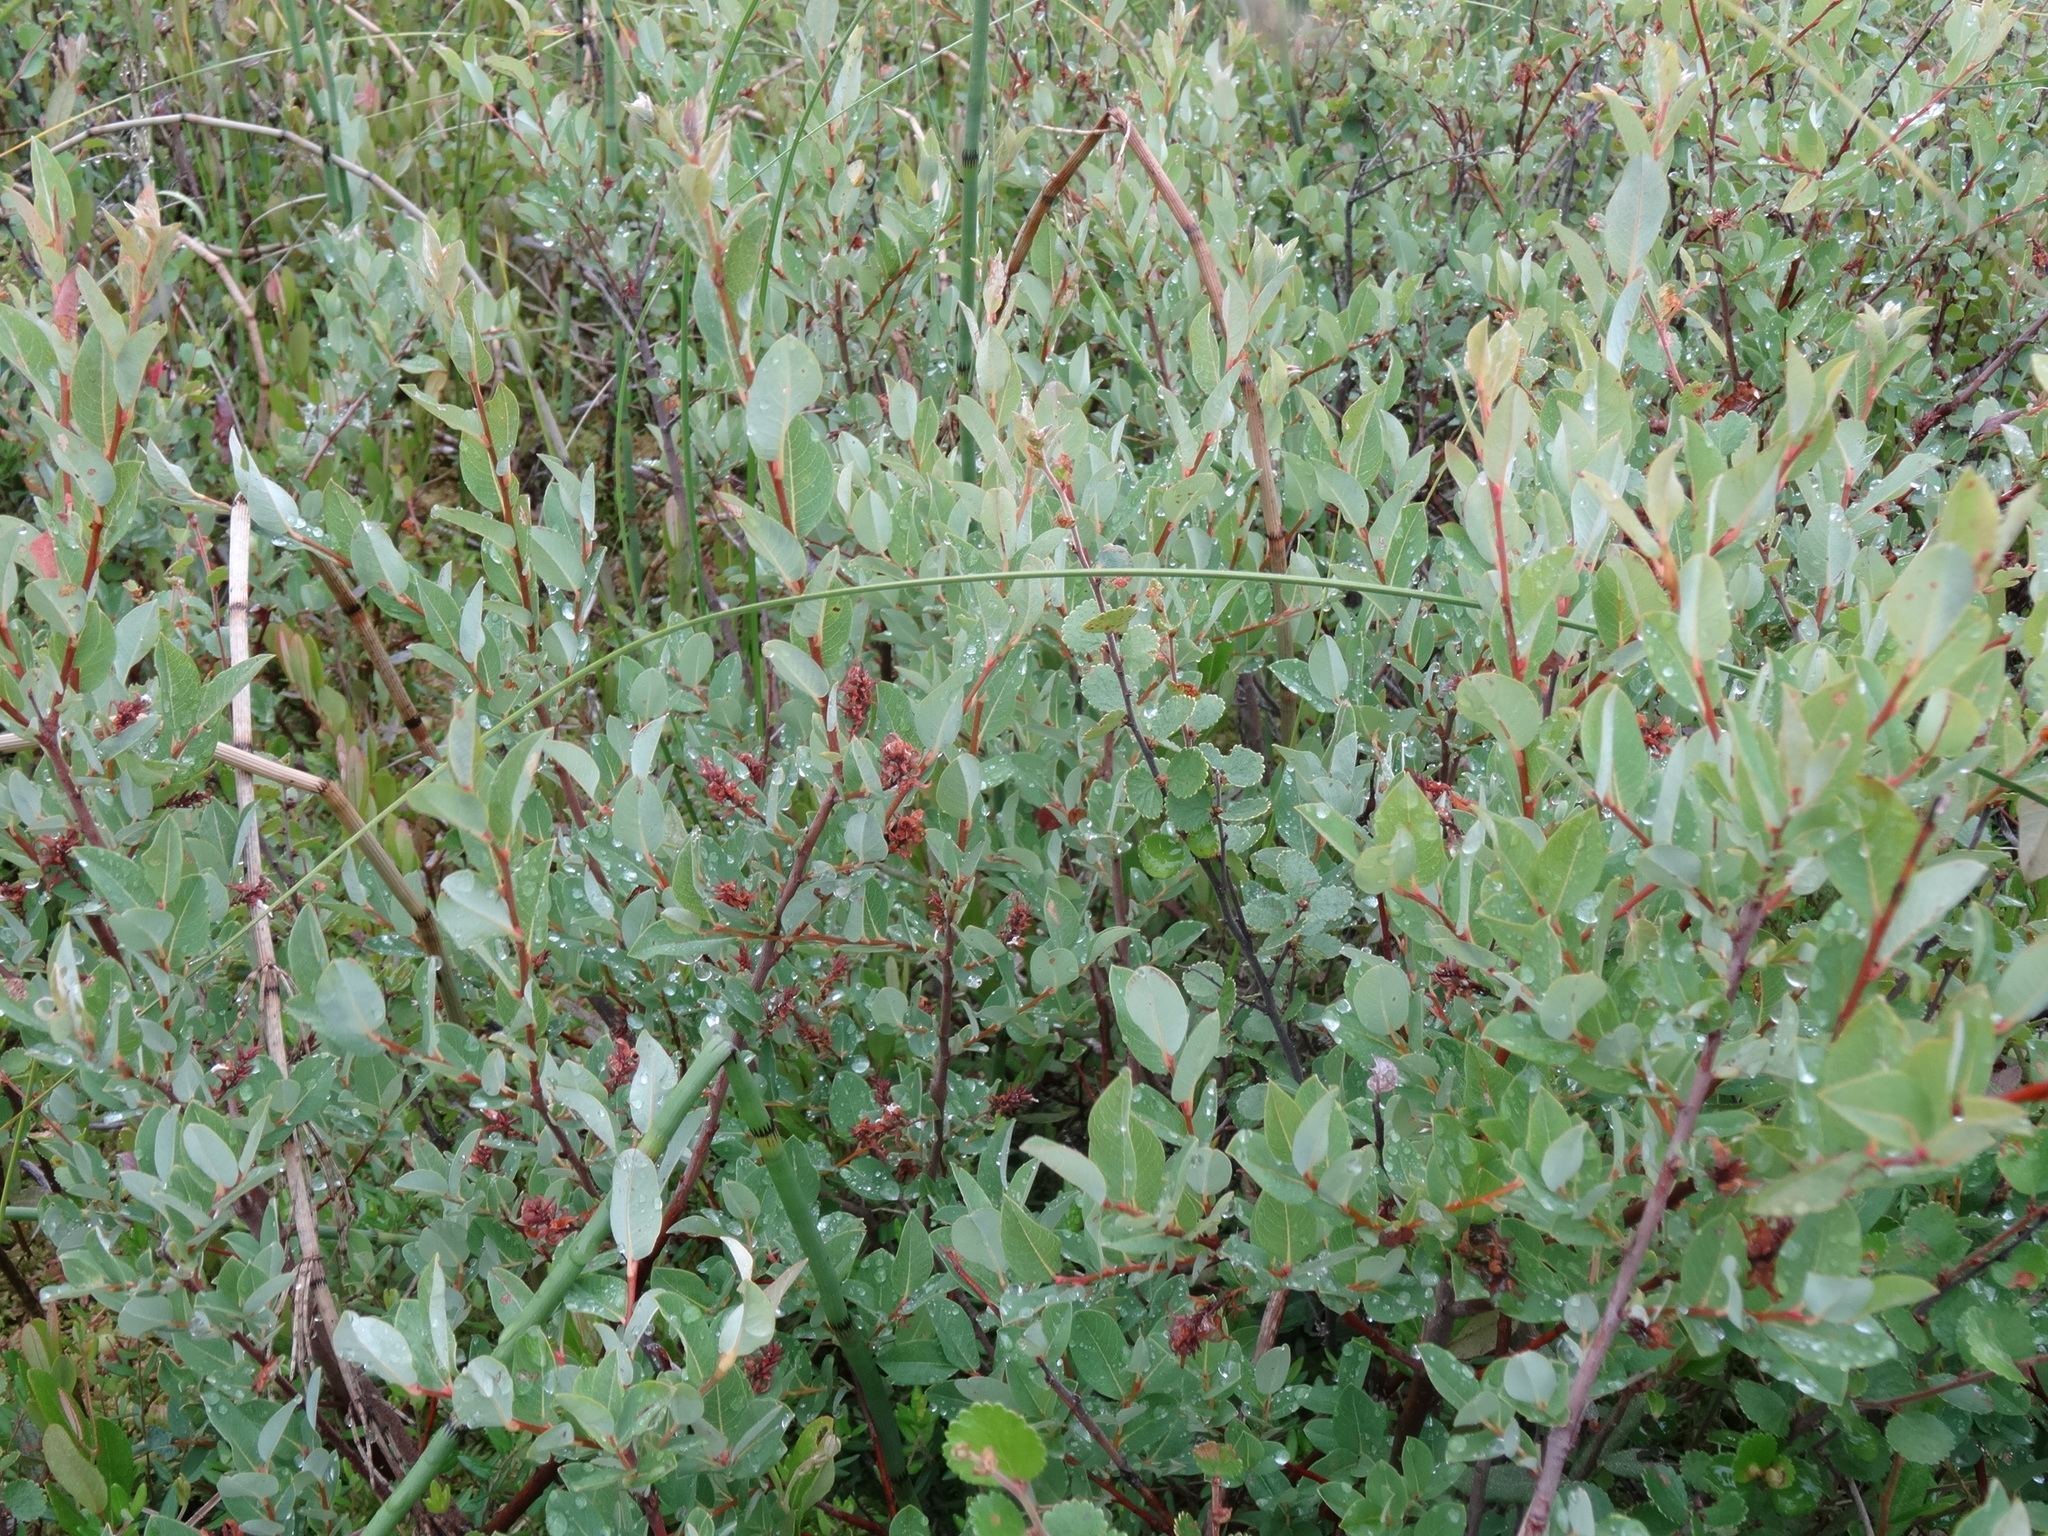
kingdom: Plantae
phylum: Tracheophyta
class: Magnoliopsida
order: Malpighiales
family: Salicaceae
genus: Salix
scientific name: Salix myrtilloides
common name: Myrtle-leaved willow
